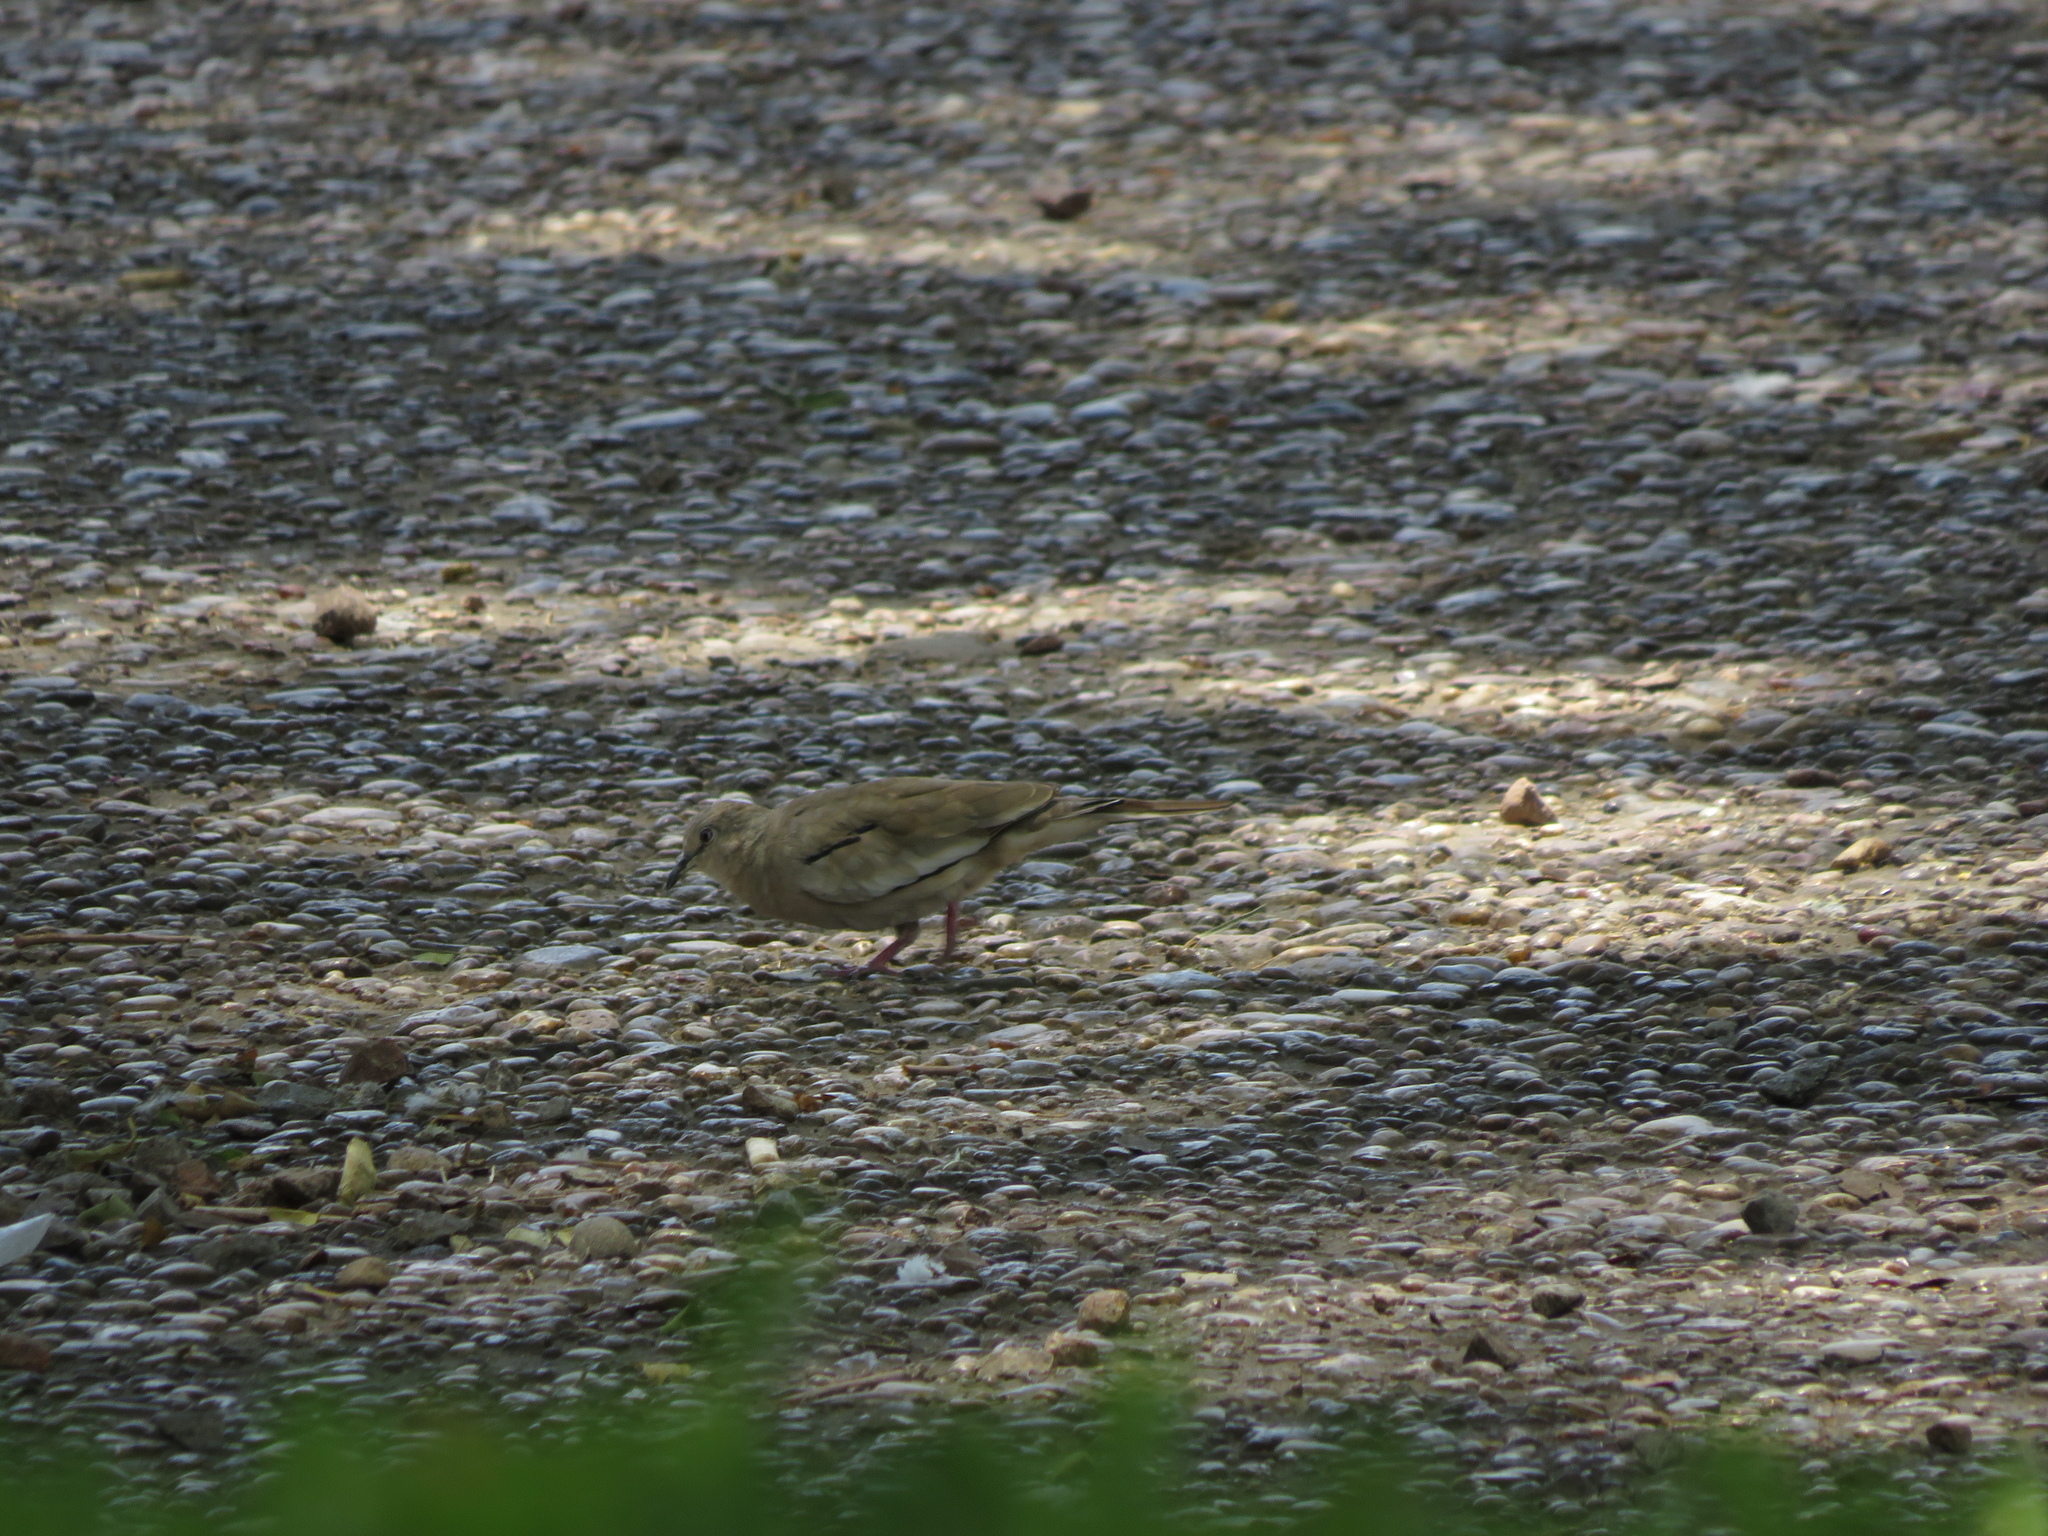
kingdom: Animalia
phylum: Chordata
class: Aves
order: Columbiformes
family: Columbidae
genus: Columbina
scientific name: Columbina picui
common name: Picui ground dove
